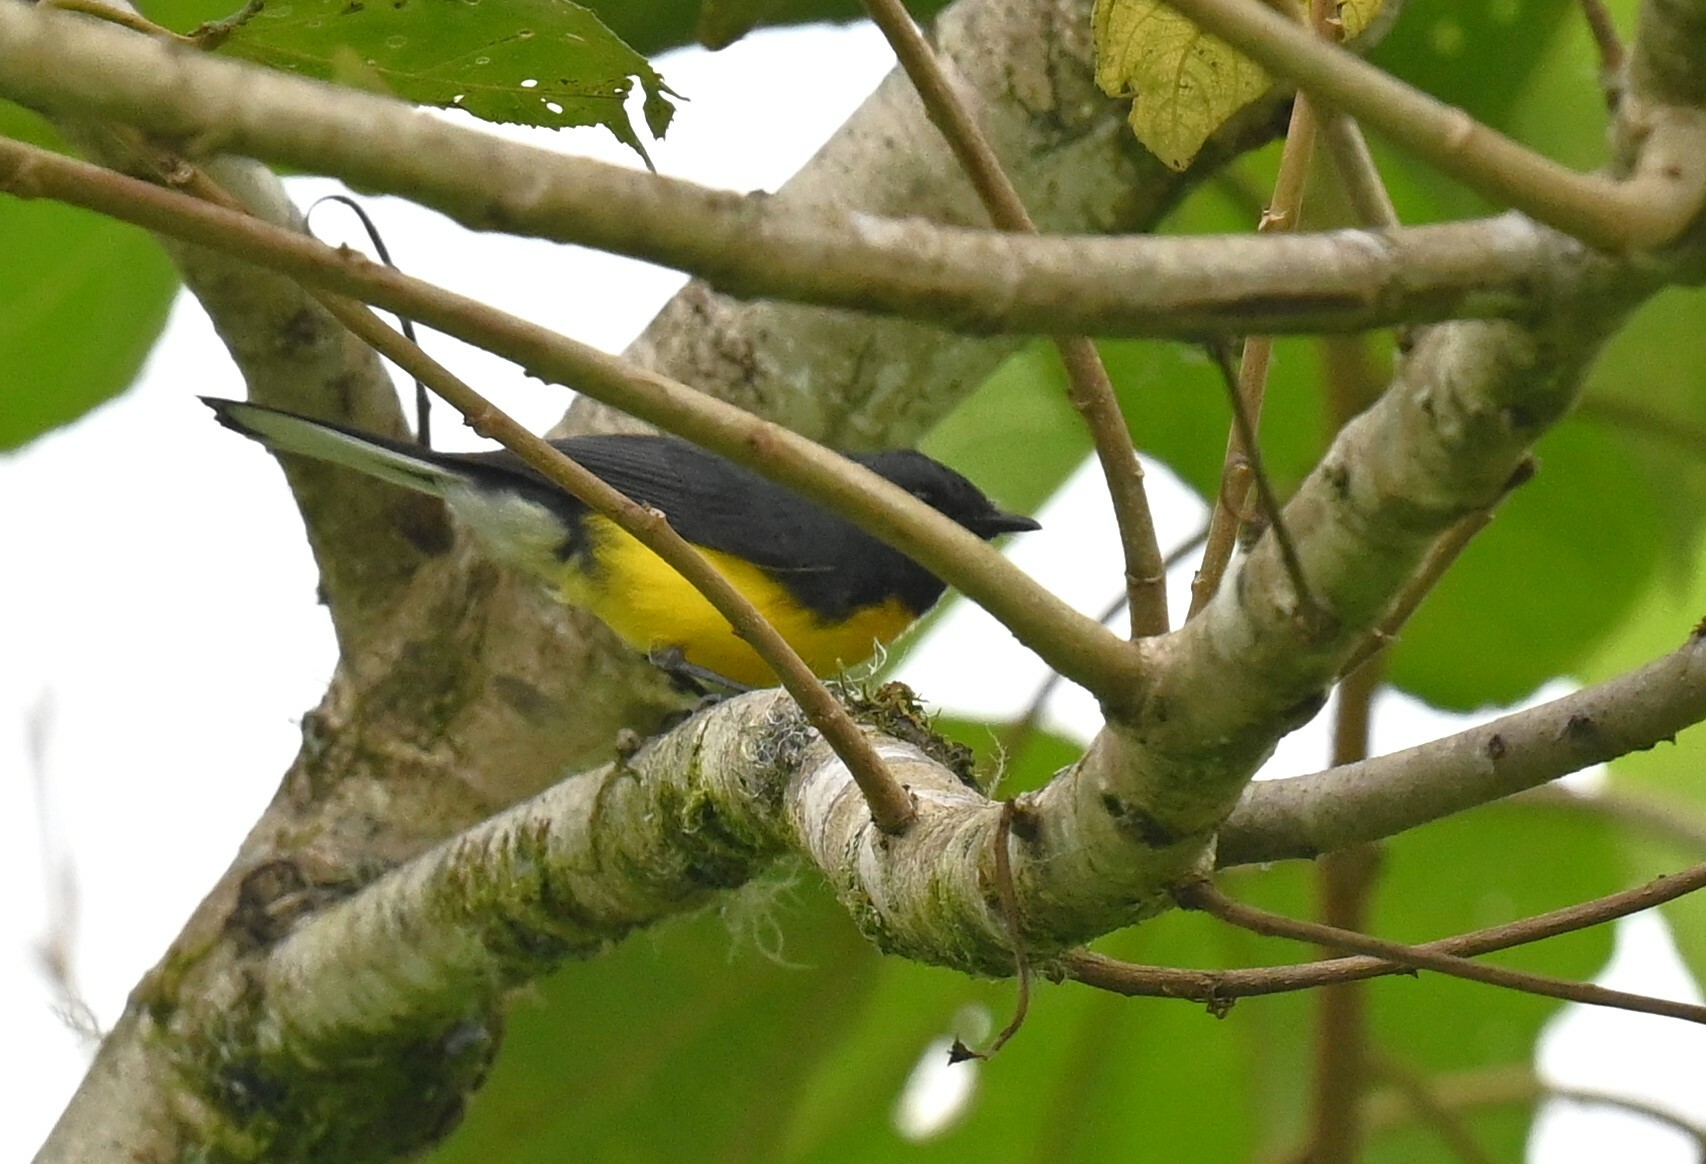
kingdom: Animalia
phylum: Chordata
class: Aves
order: Passeriformes
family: Parulidae
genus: Myioborus
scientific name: Myioborus miniatus
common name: Slate-throated redstart
